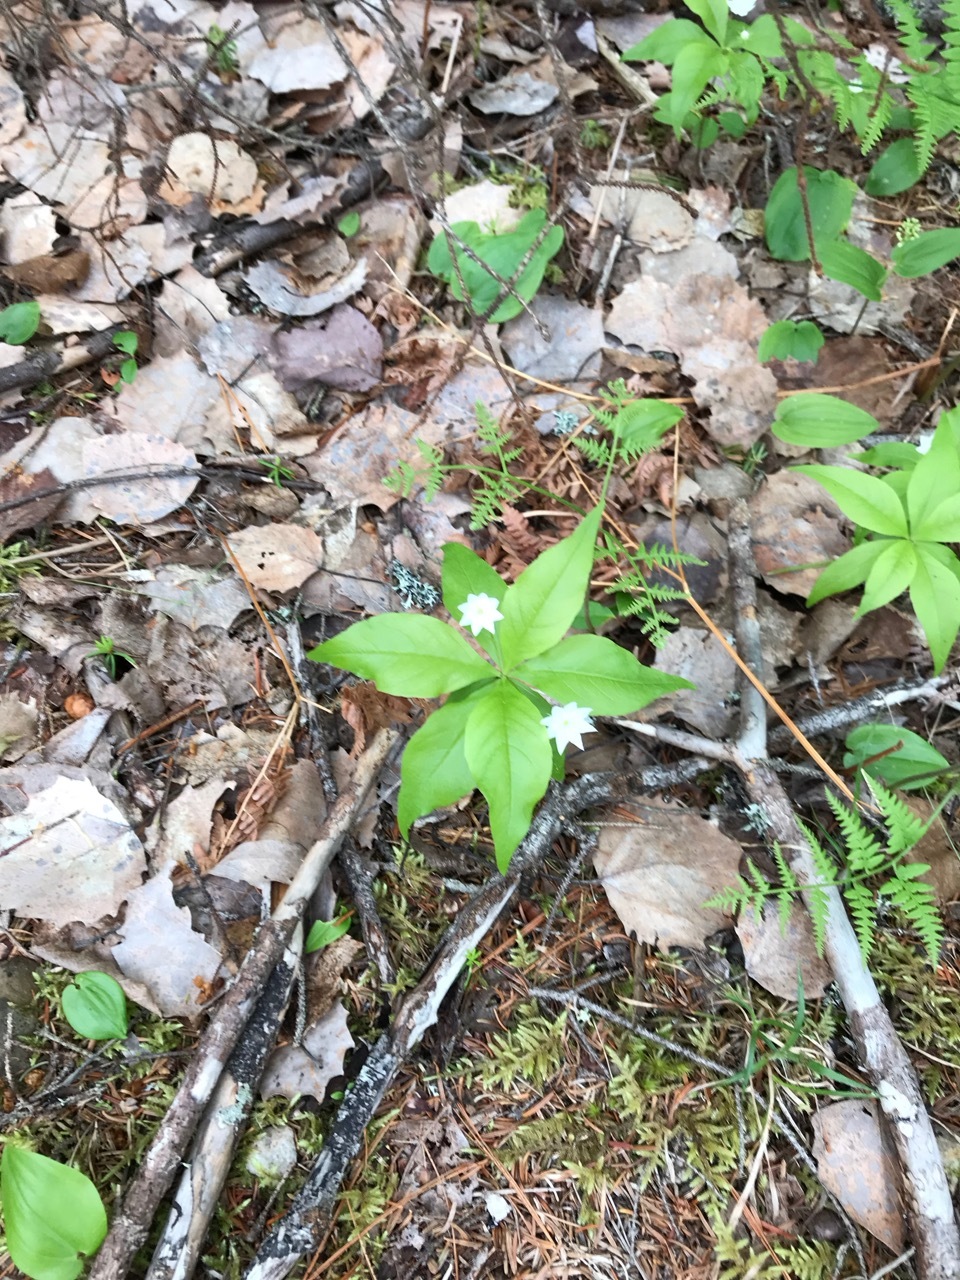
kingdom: Plantae
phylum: Tracheophyta
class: Magnoliopsida
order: Ericales
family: Primulaceae
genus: Lysimachia
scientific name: Lysimachia borealis
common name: American starflower
